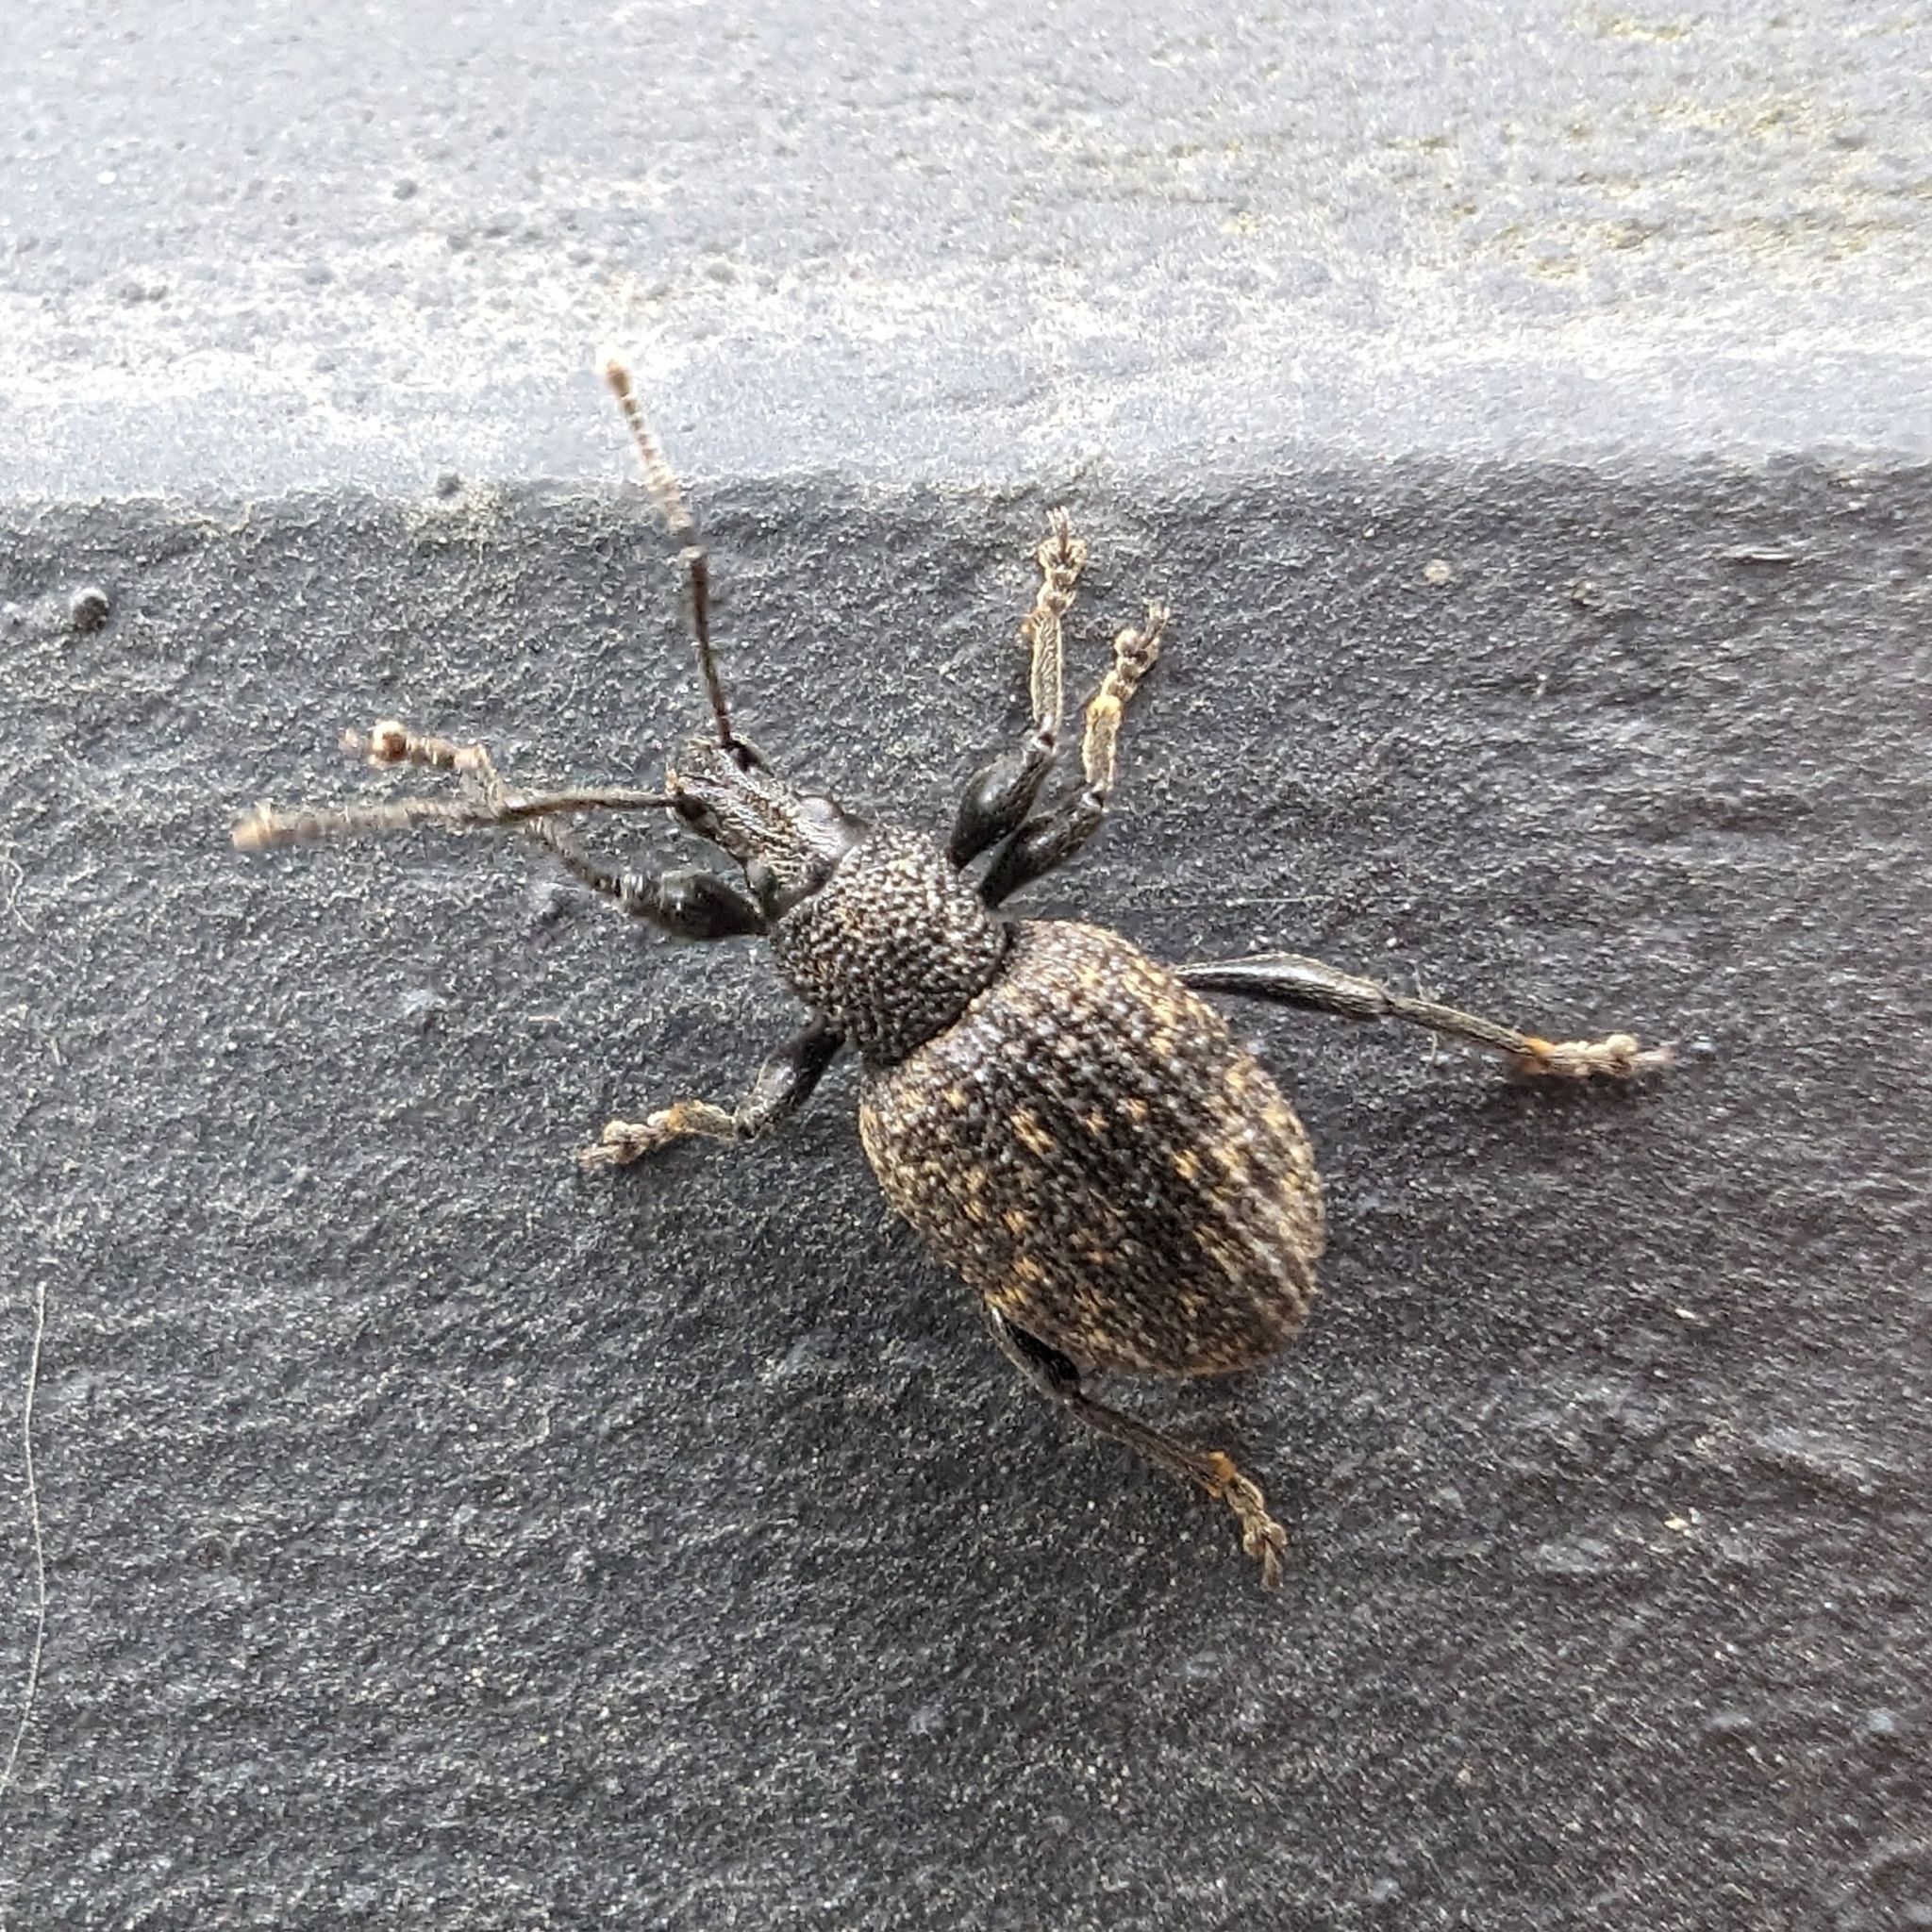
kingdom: Animalia
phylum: Arthropoda
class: Insecta
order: Coleoptera
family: Curculionidae
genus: Otiorhynchus
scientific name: Otiorhynchus sulcatus
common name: Black vine weevil
